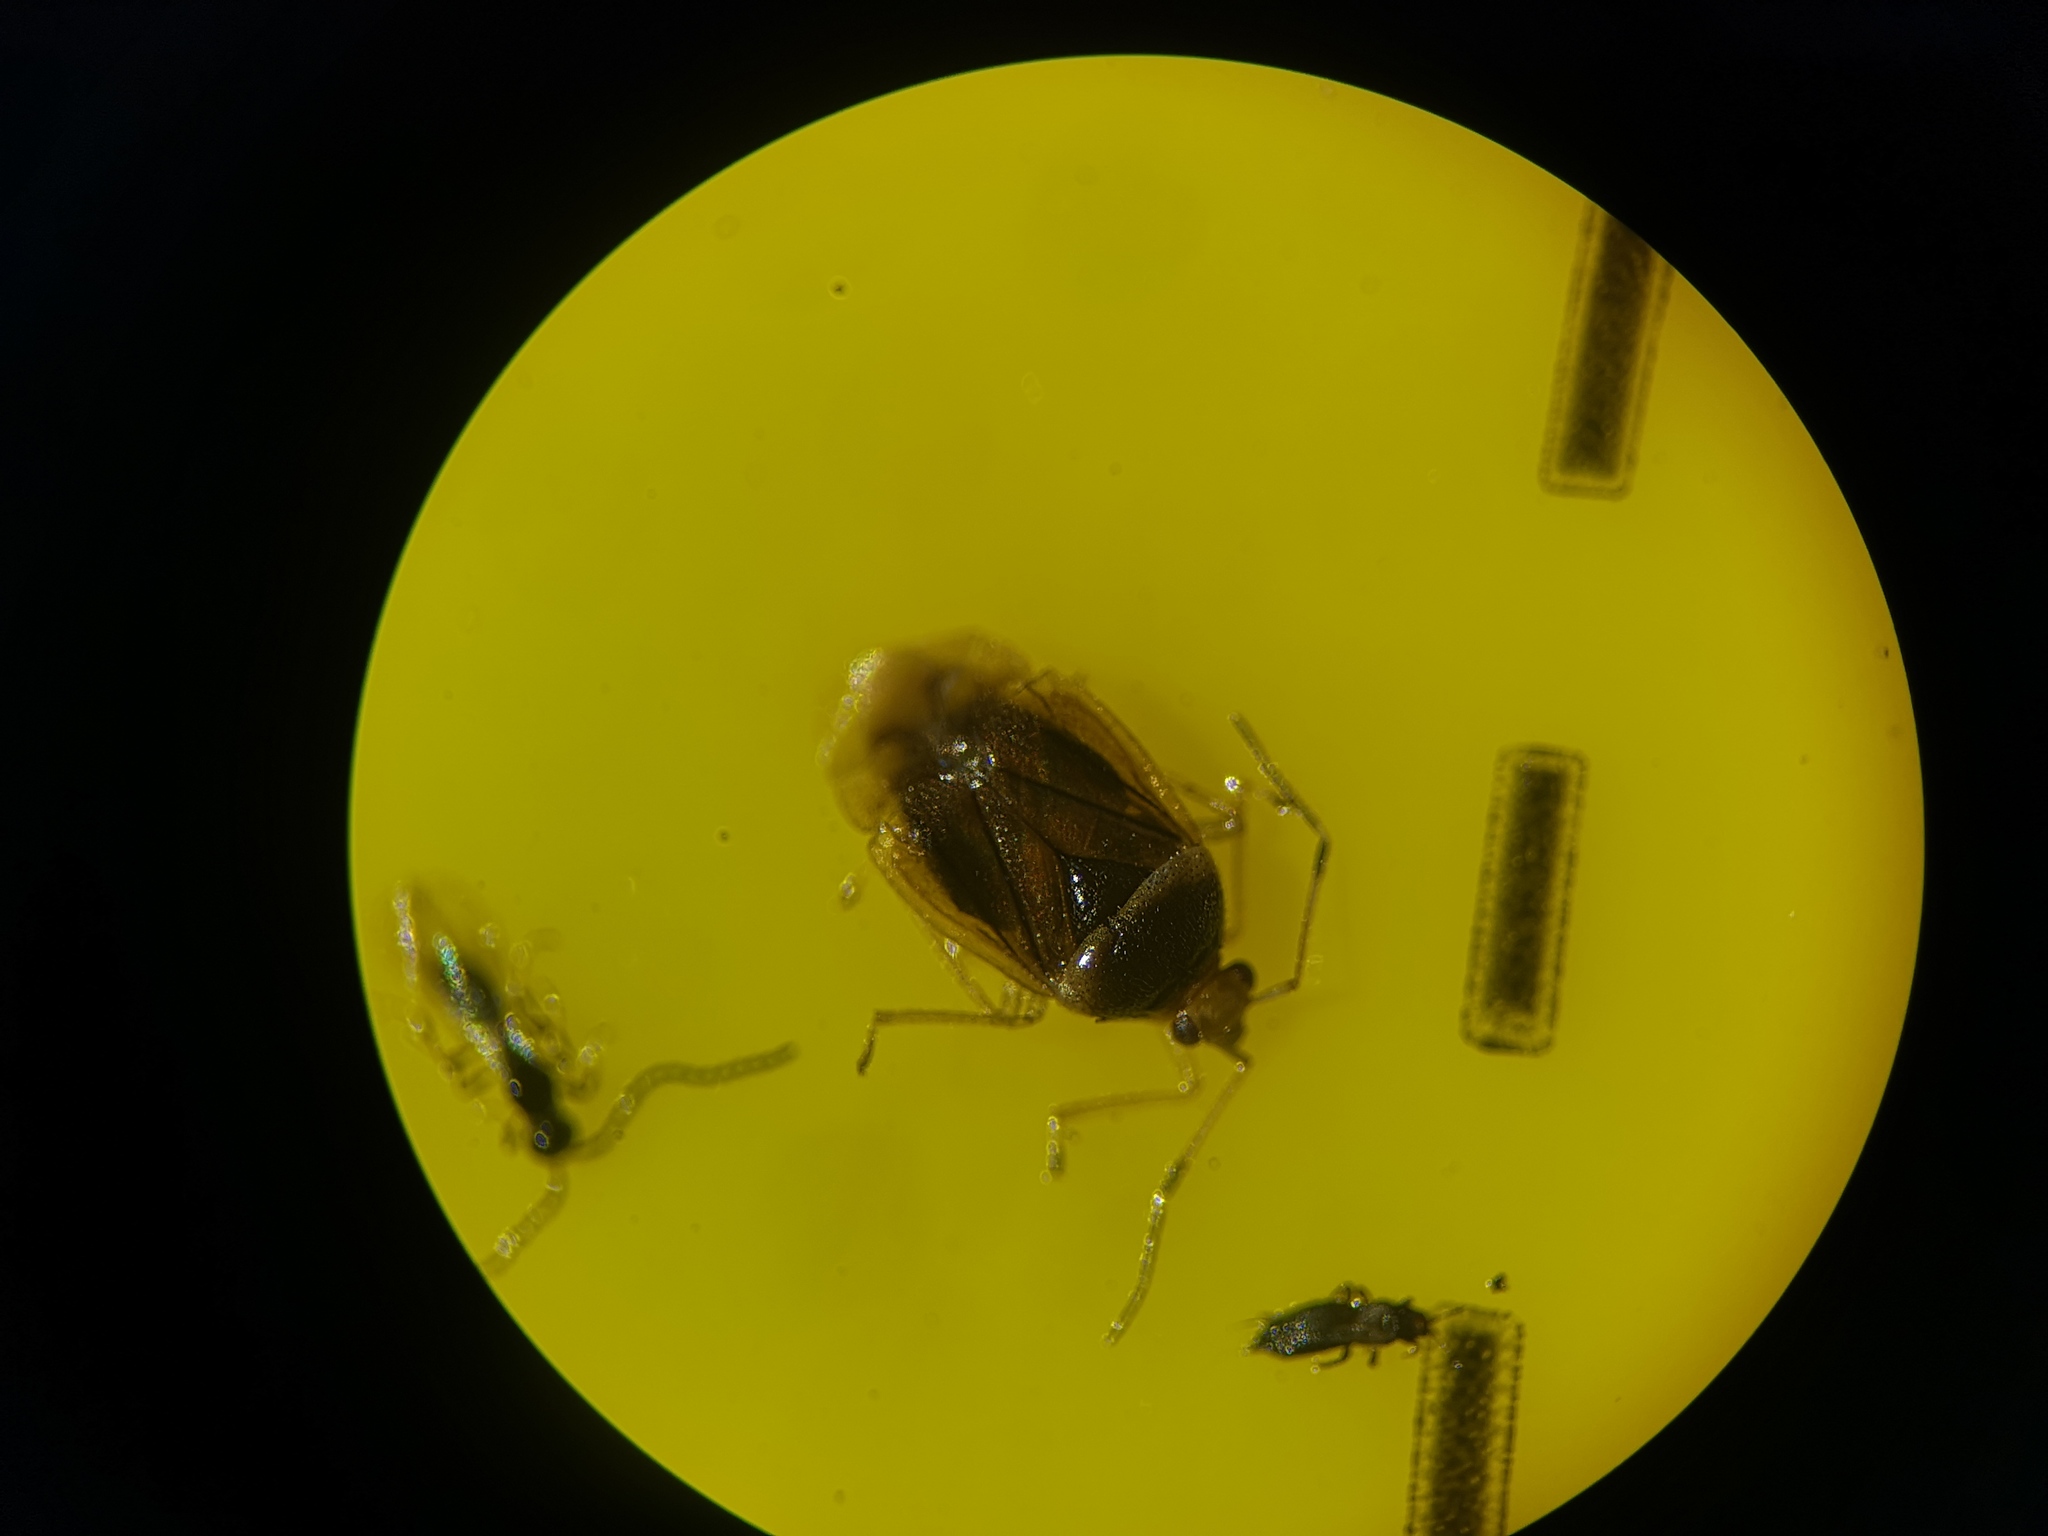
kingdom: Animalia
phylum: Arthropoda
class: Insecta
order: Hemiptera
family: Miridae
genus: Monalocoris
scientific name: Monalocoris filicis
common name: Bracken bug
